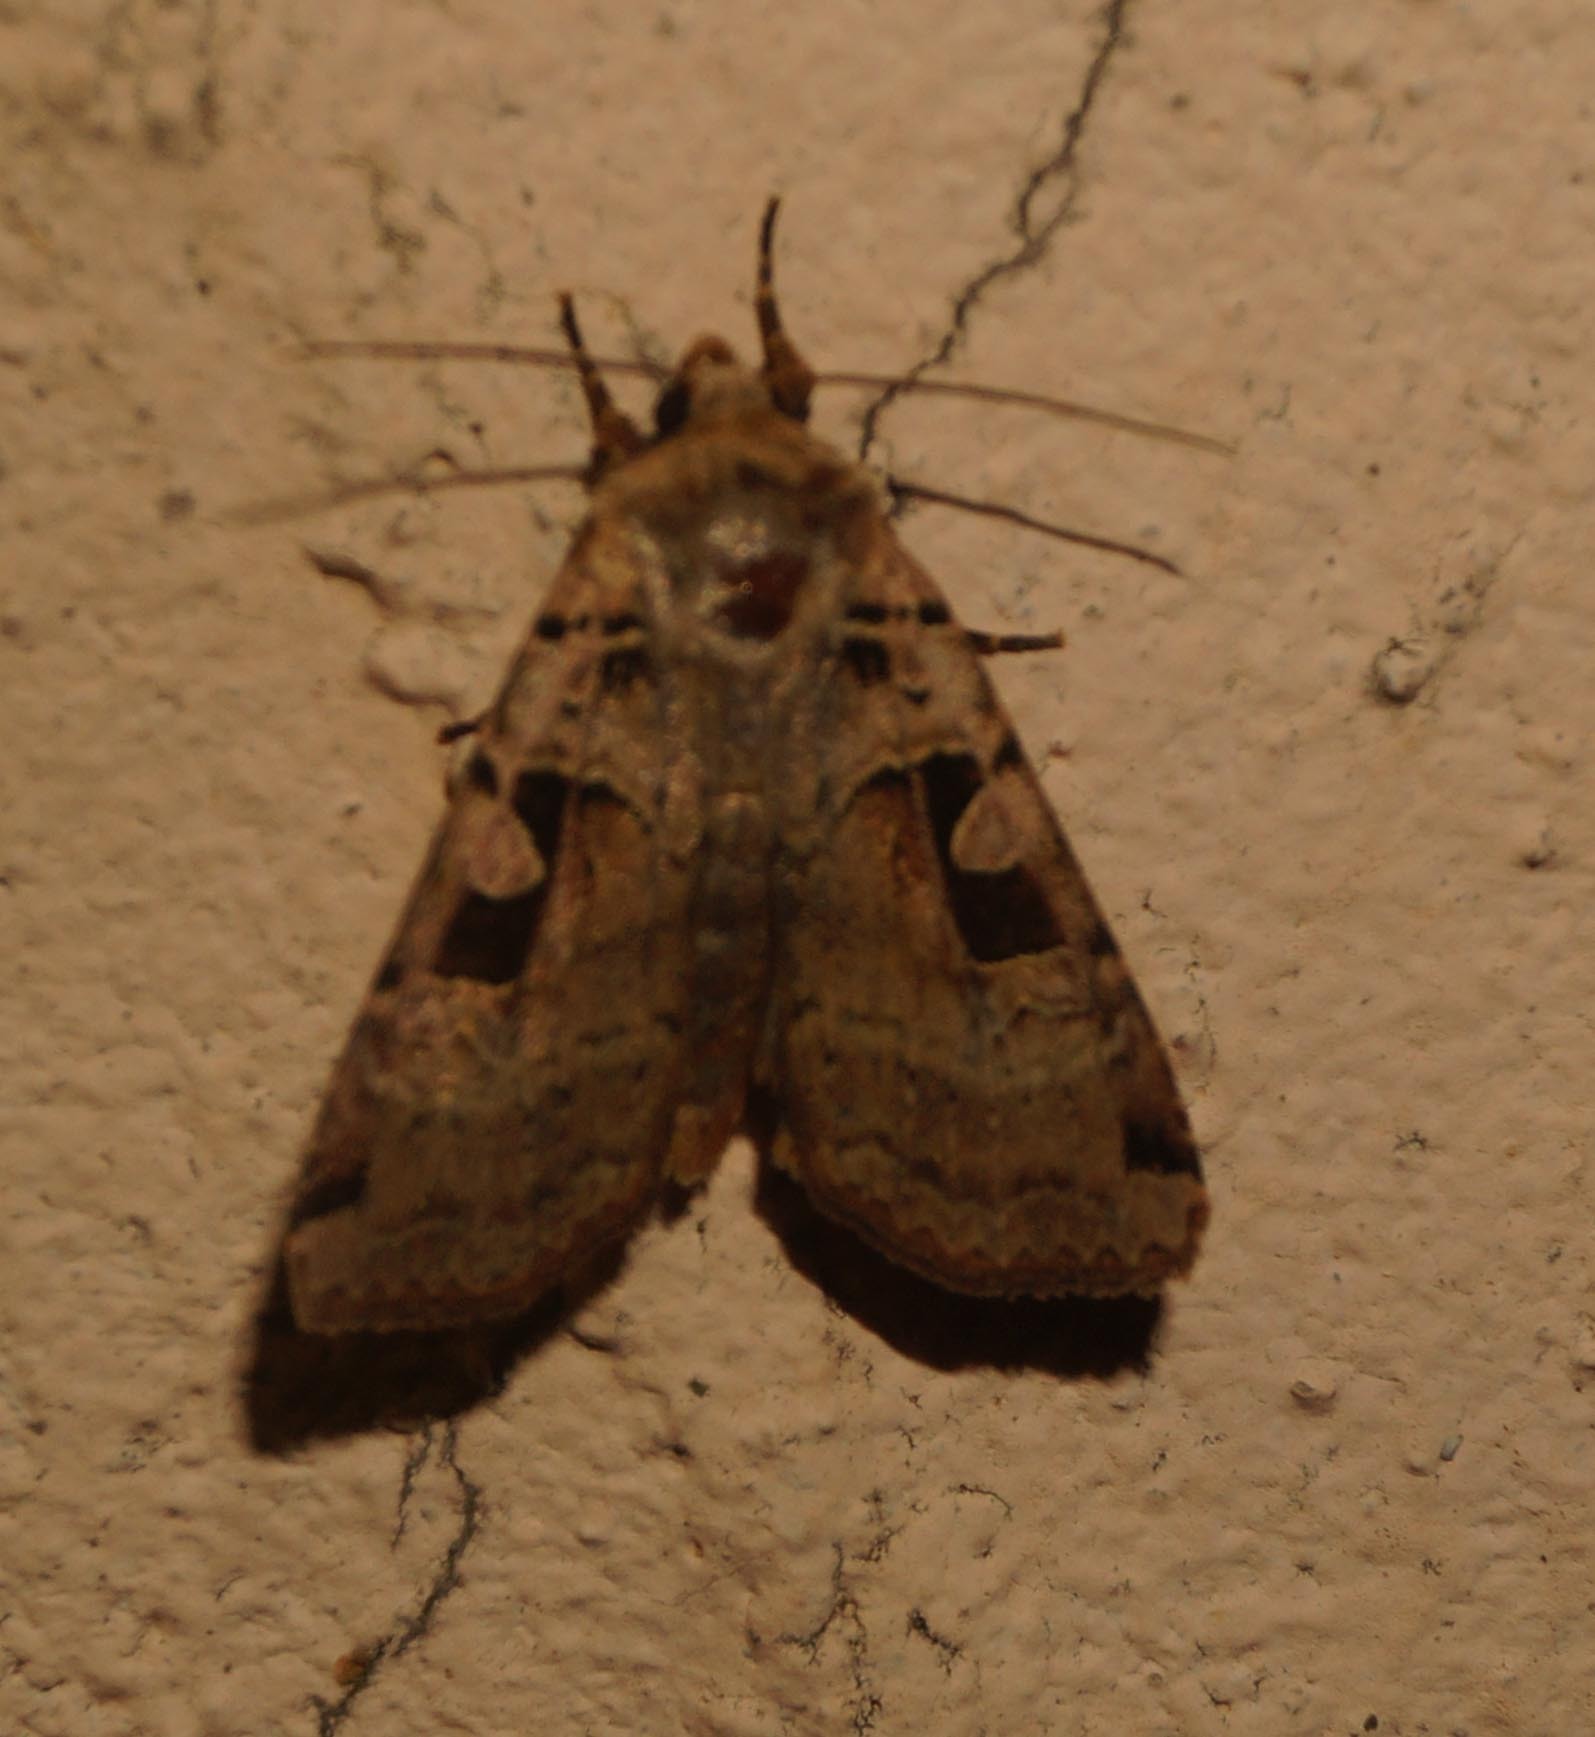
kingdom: Animalia
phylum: Arthropoda
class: Insecta
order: Lepidoptera
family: Noctuidae
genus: Xestia
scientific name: Xestia ditrapezium
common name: Triple-spotted clay
